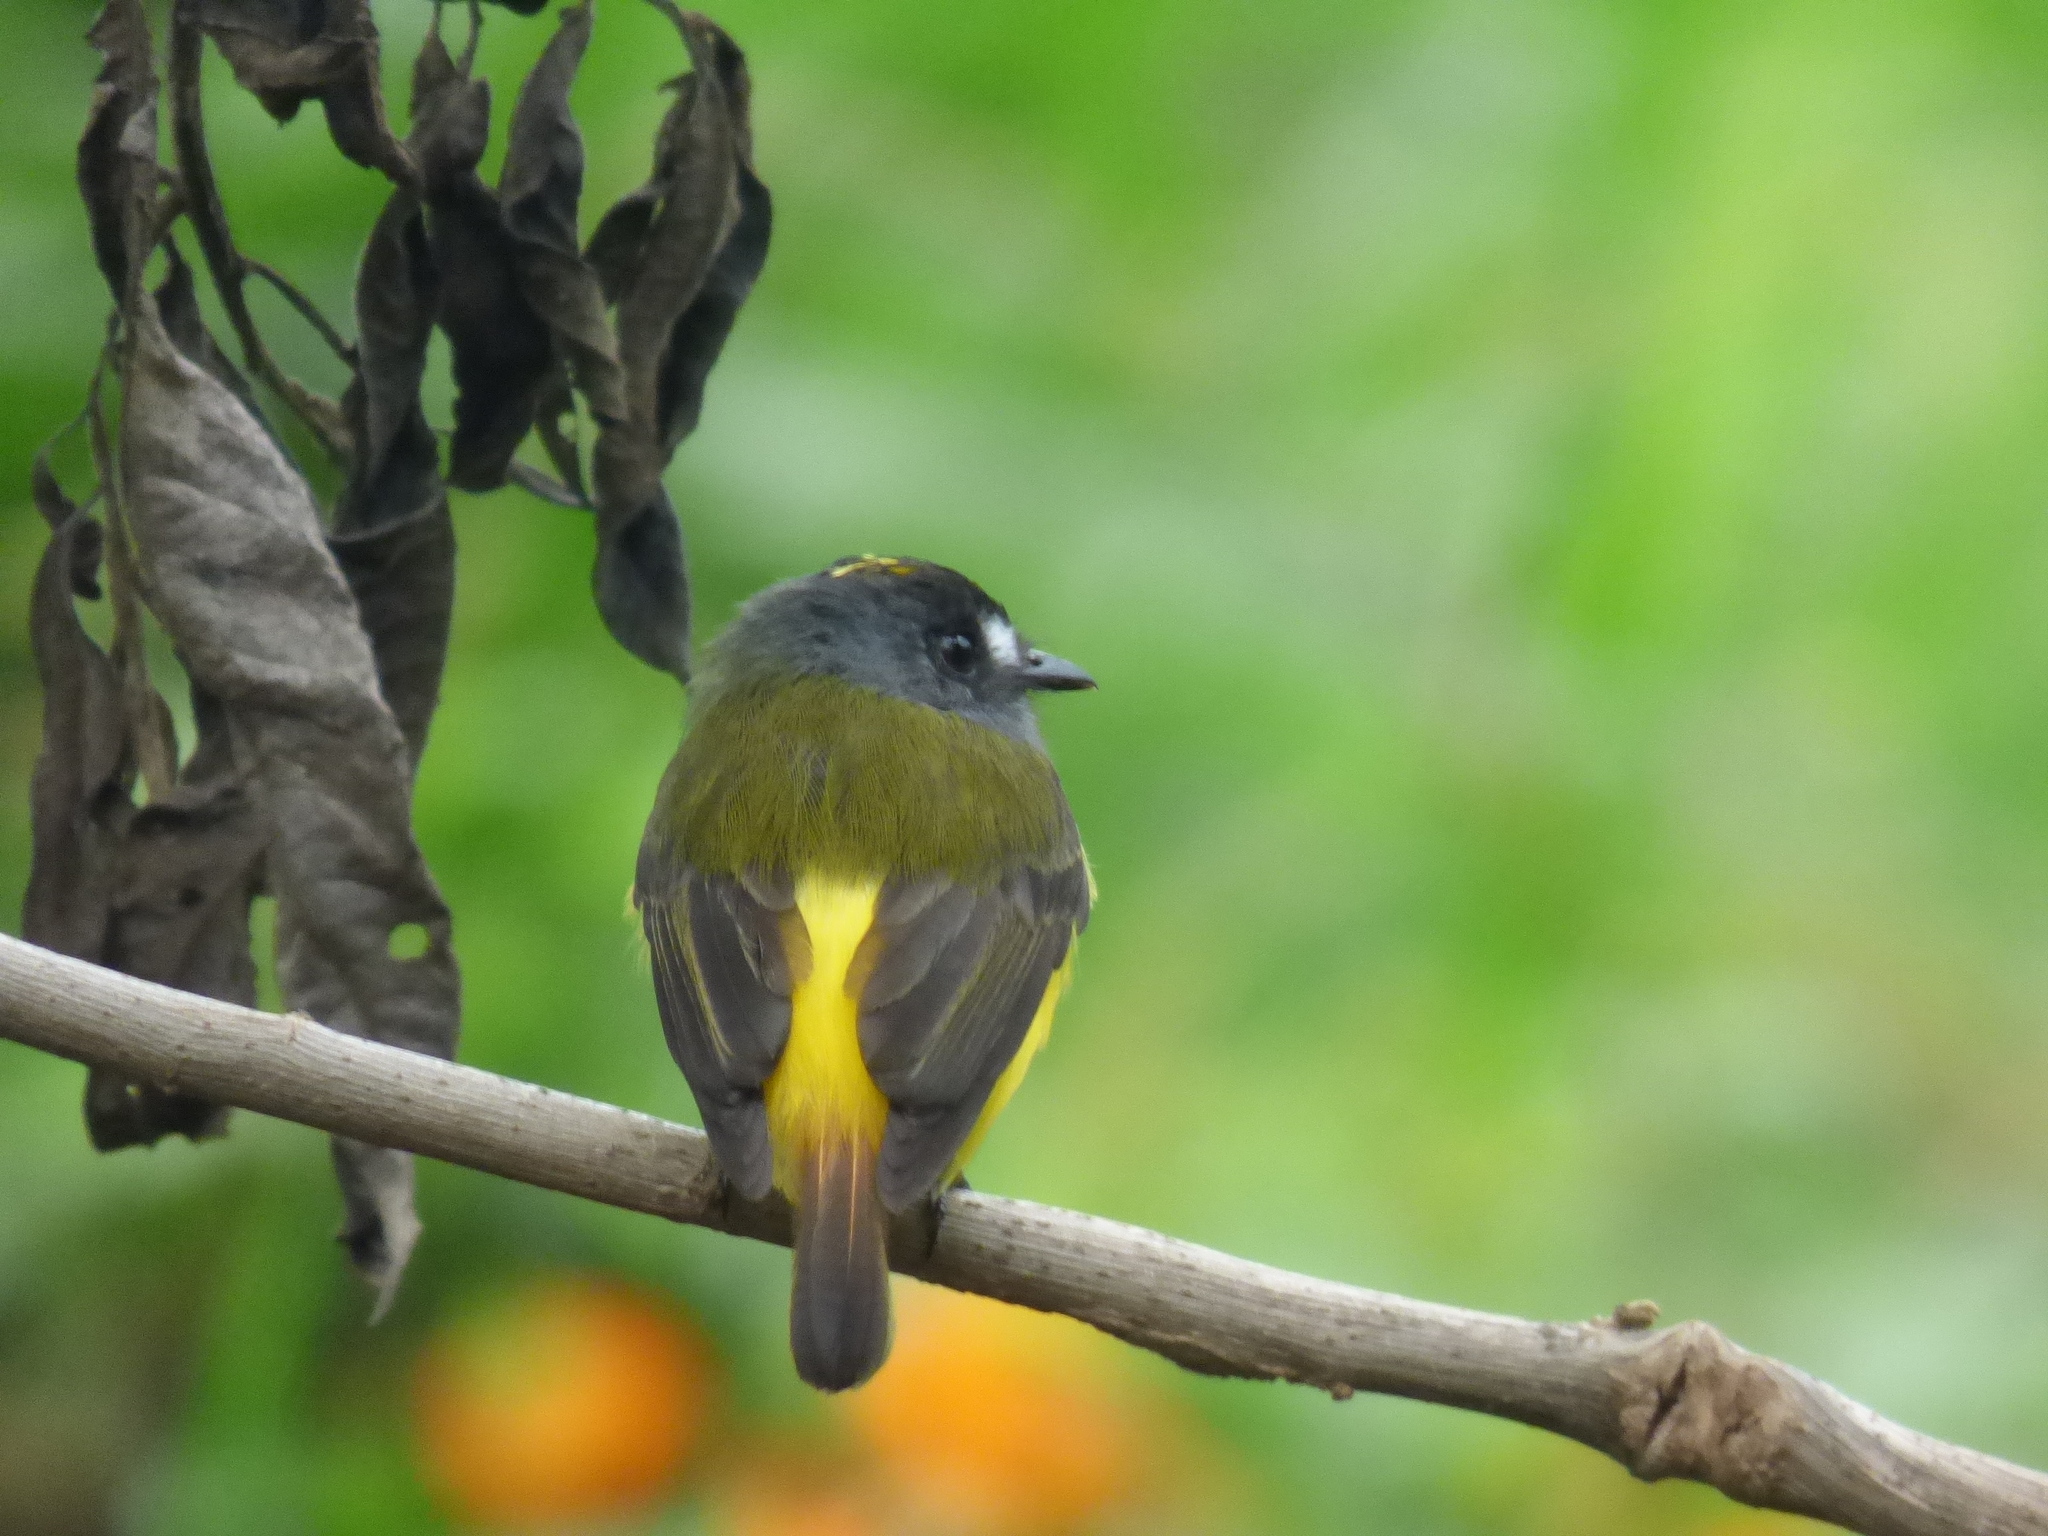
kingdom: Animalia
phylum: Chordata
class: Aves
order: Passeriformes
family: Tyrannidae
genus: Myiotriccus
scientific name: Myiotriccus ornatus
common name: Ornate flycatcher
